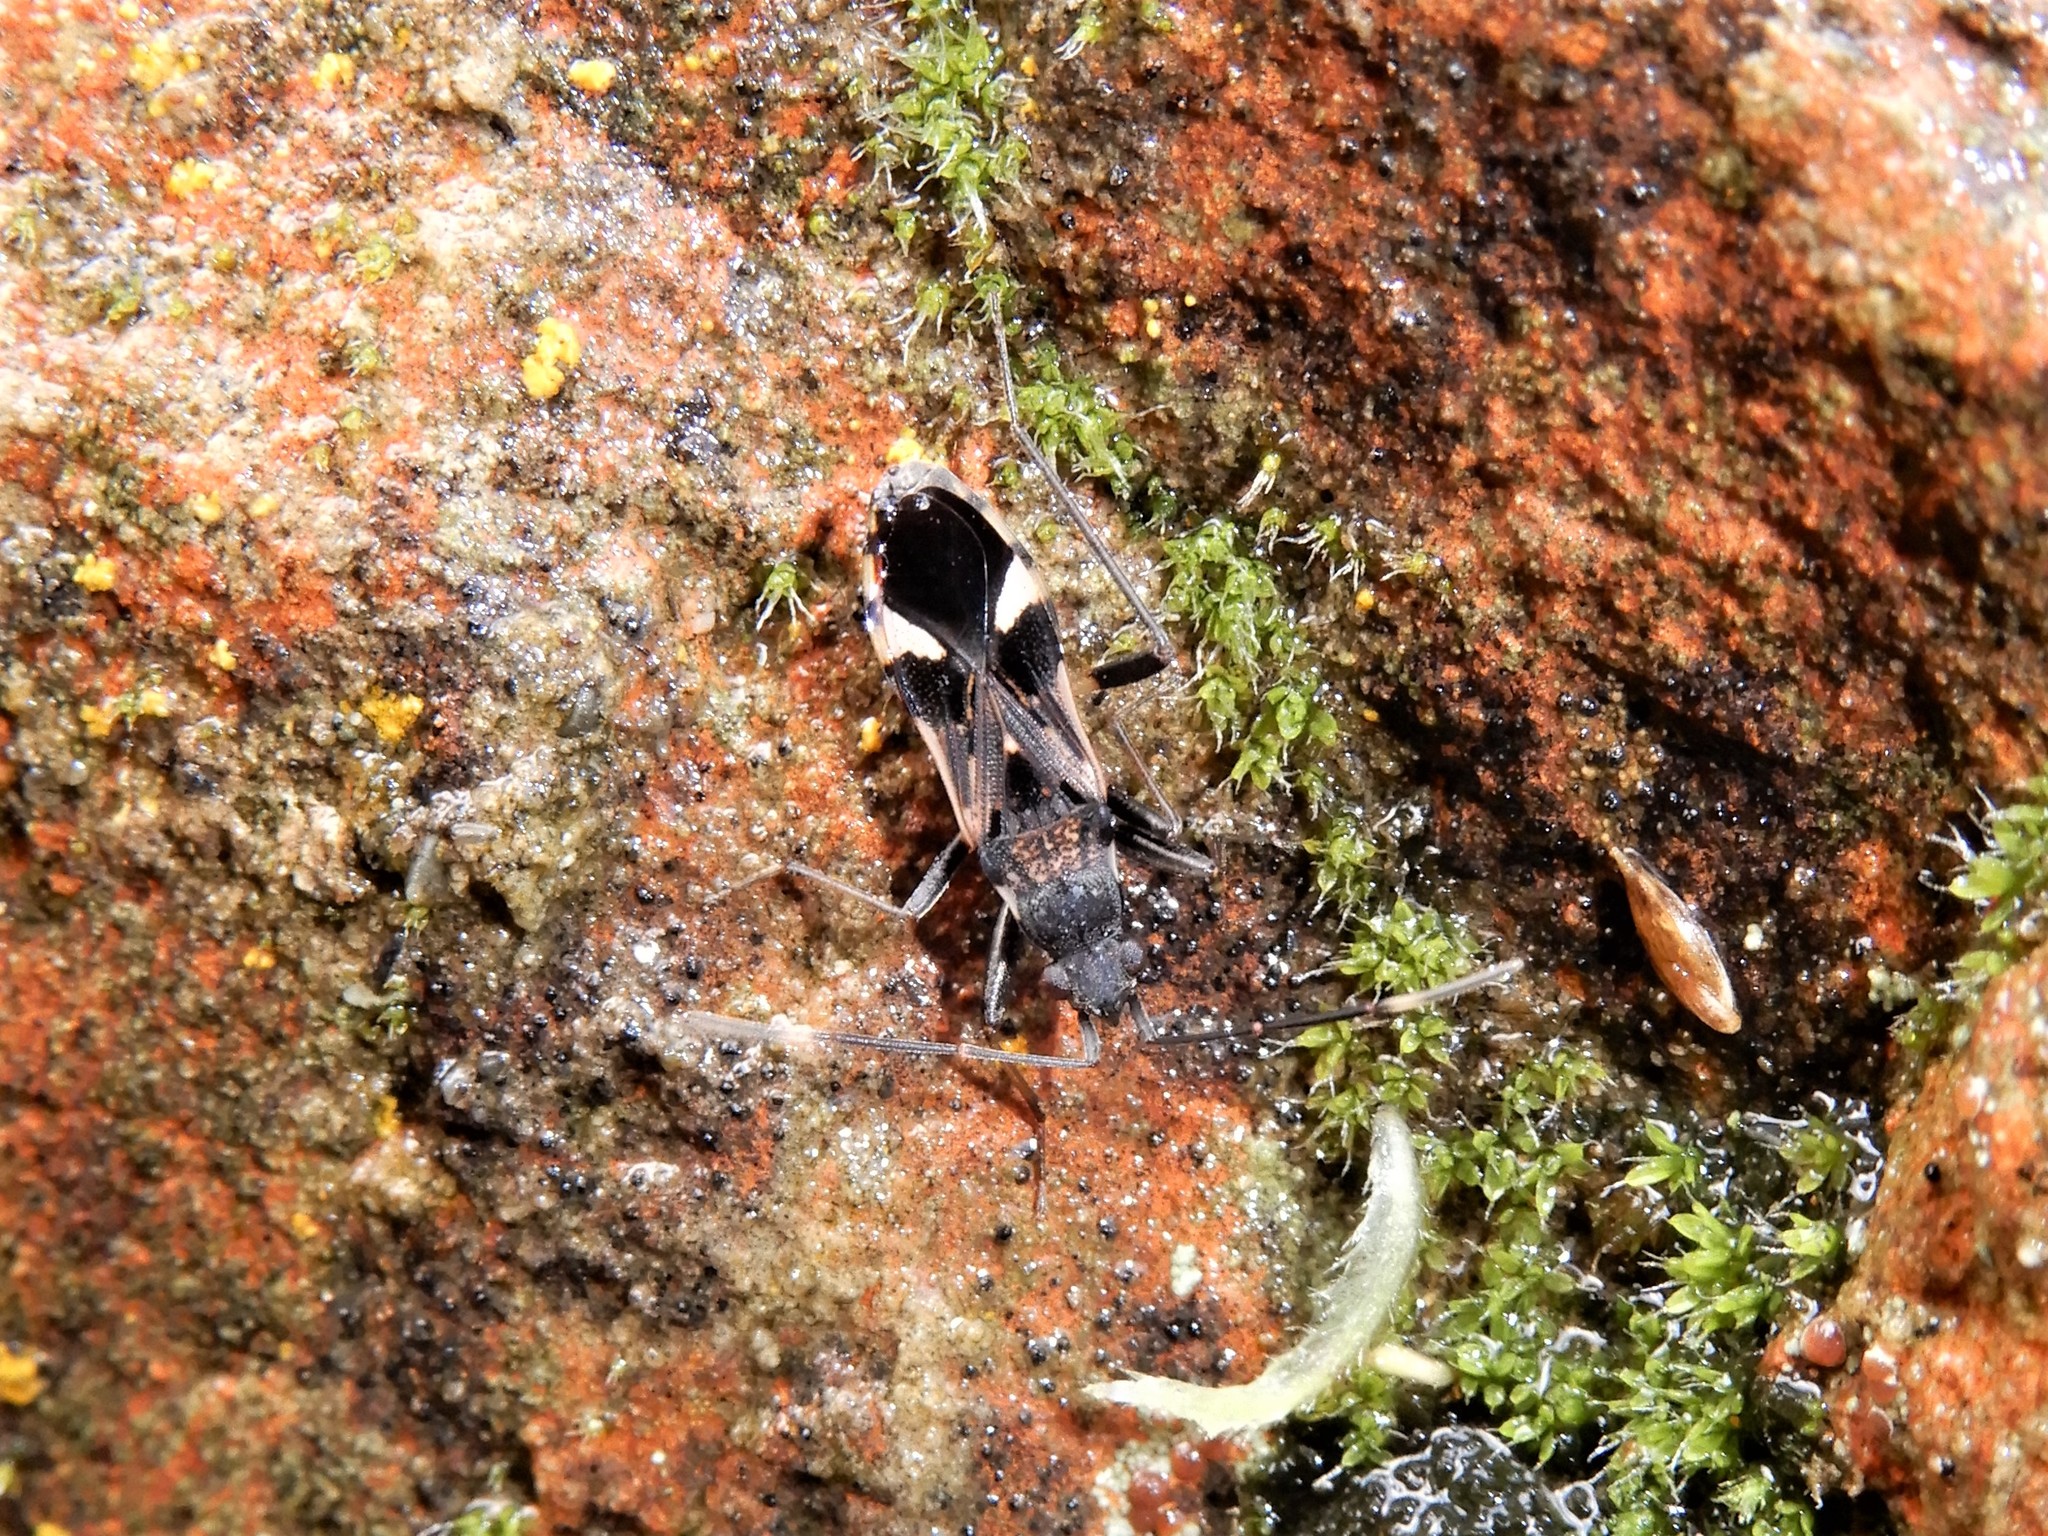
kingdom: Animalia
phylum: Arthropoda
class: Insecta
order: Hemiptera
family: Rhyparochromidae
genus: Dieuches
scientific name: Dieuches notatus
